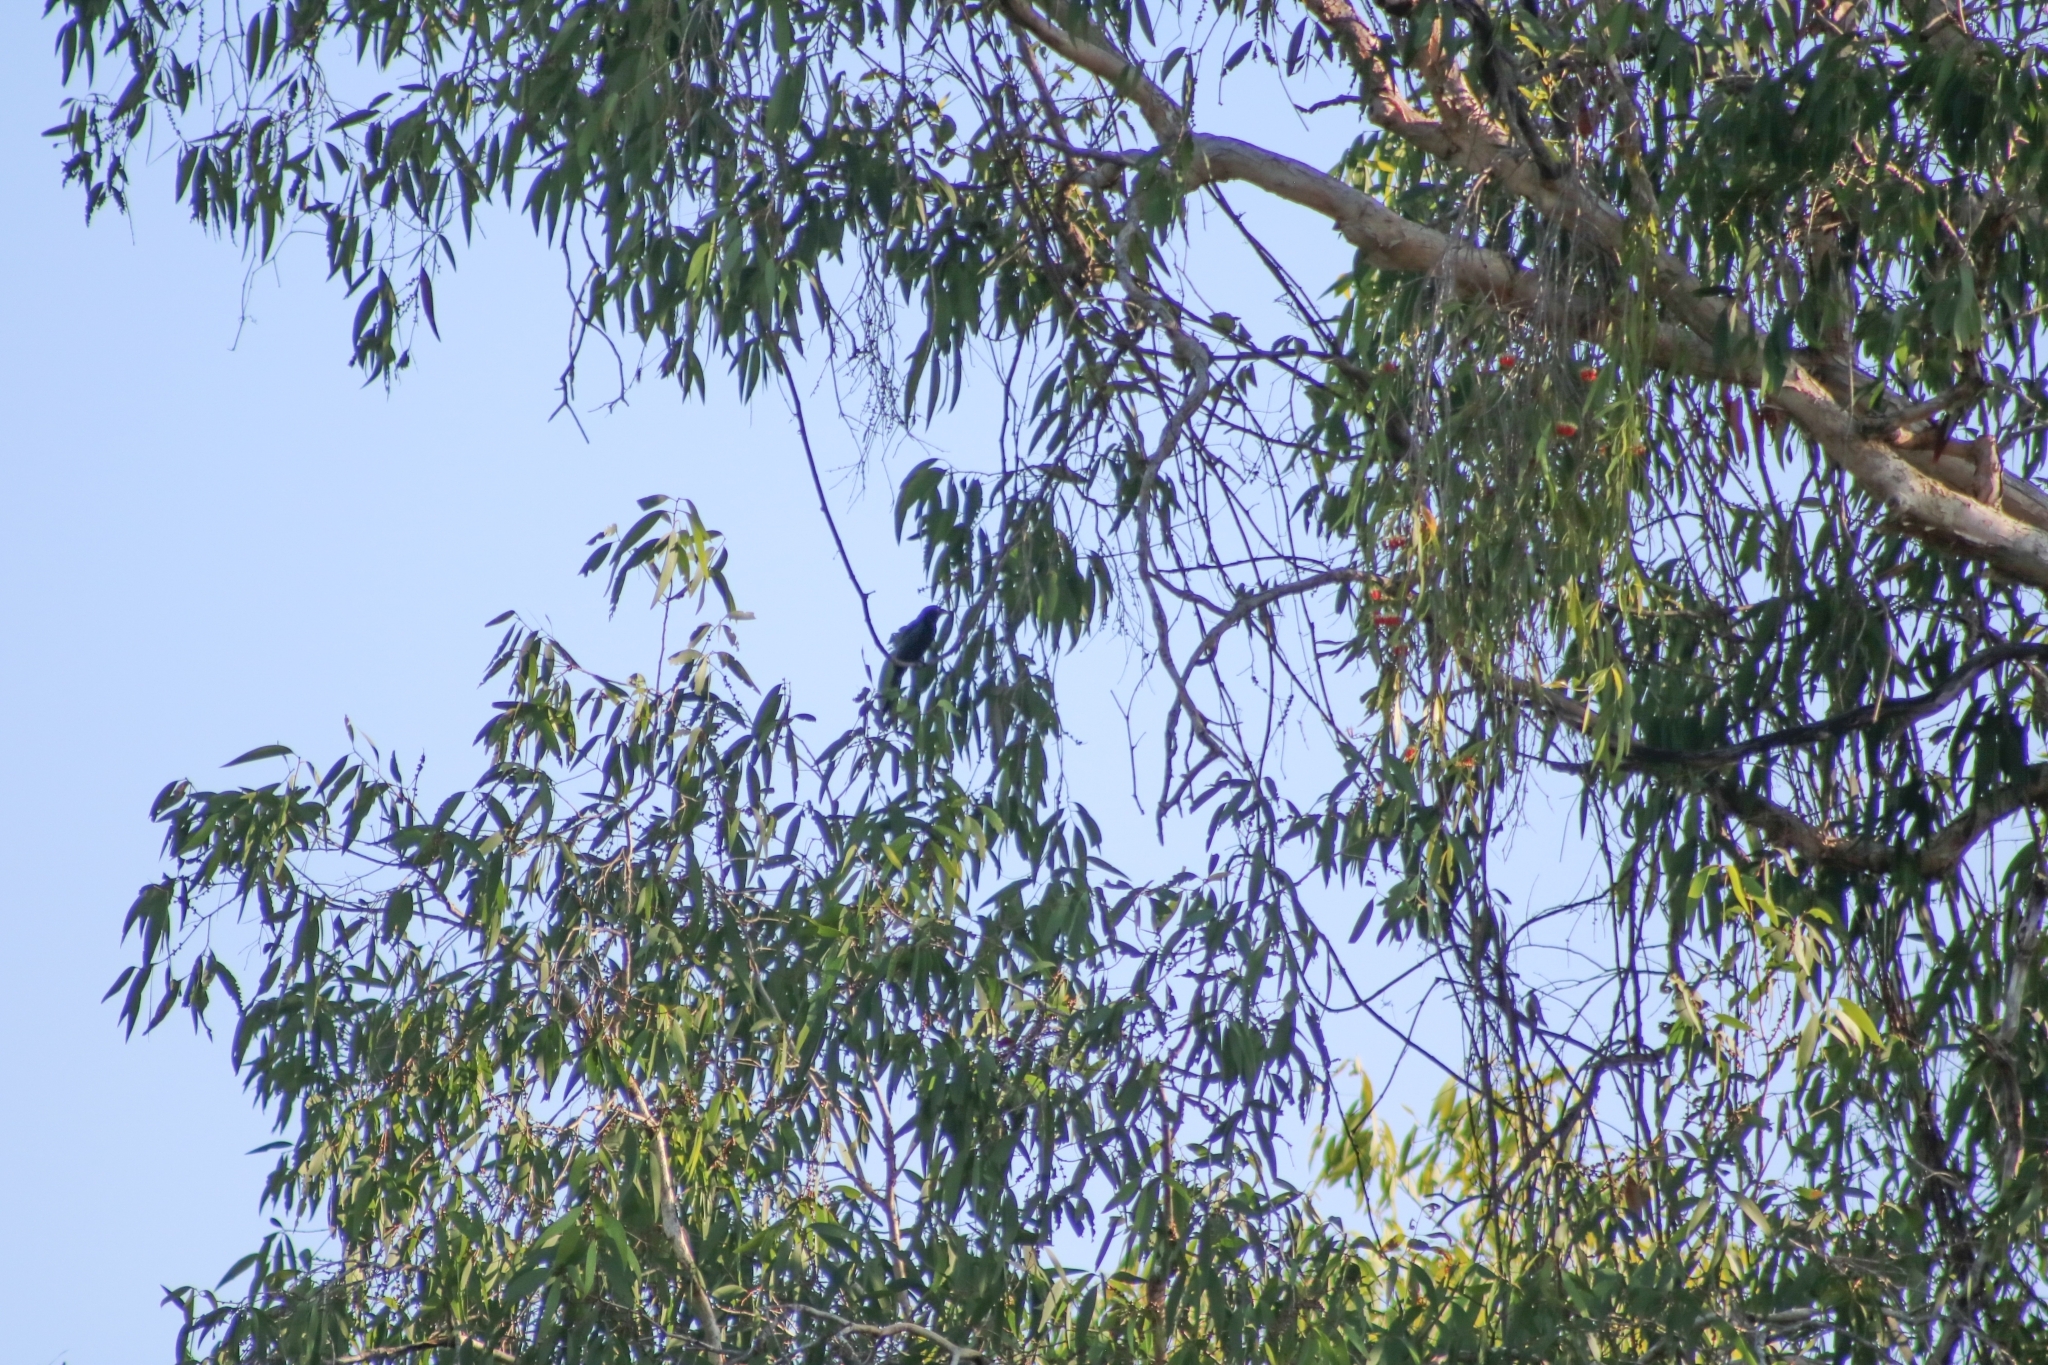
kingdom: Animalia
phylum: Chordata
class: Aves
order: Passeriformes
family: Dicruridae
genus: Dicrurus
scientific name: Dicrurus bracteatus
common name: Spangled drongo
